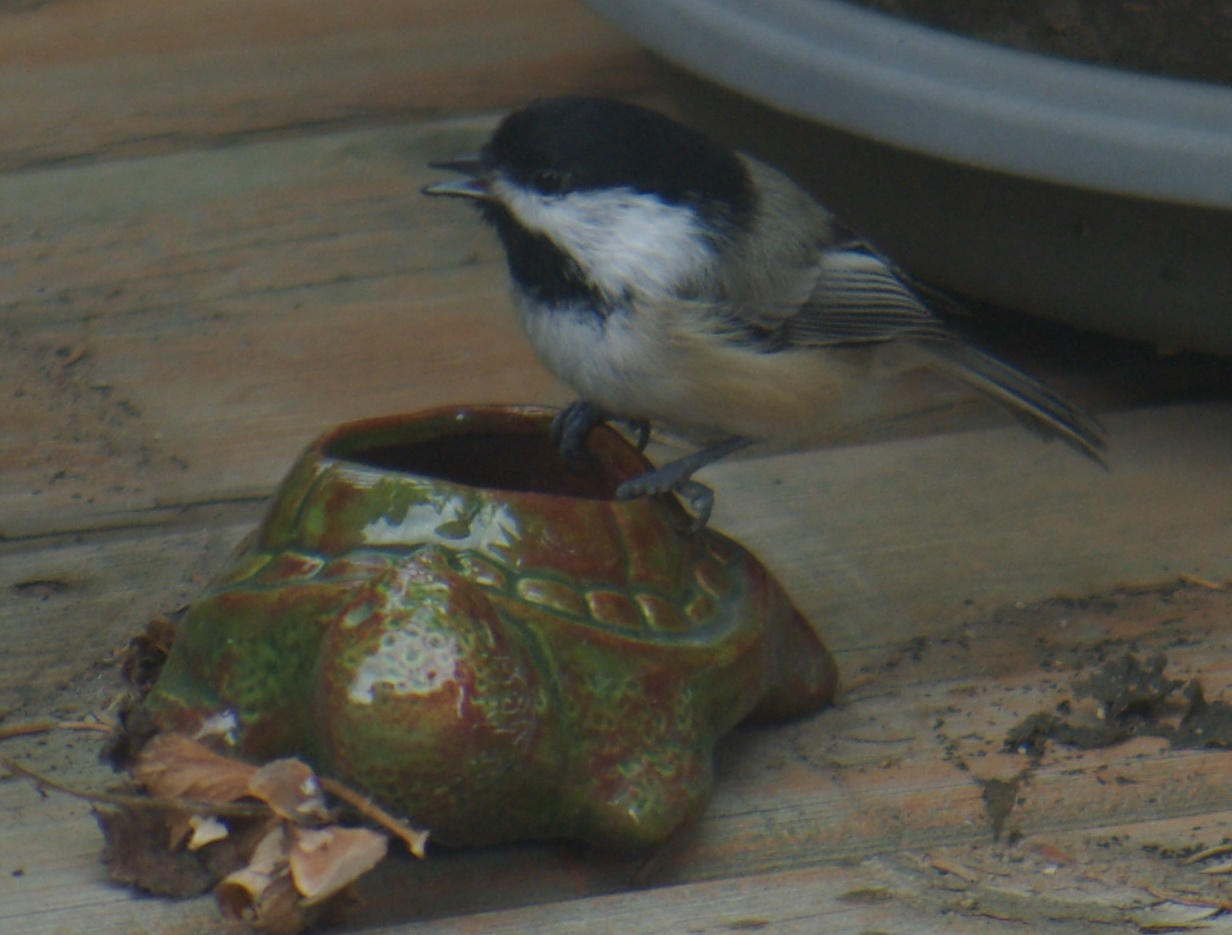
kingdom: Animalia
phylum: Chordata
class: Aves
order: Passeriformes
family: Paridae
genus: Poecile
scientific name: Poecile atricapillus
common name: Black-capped chickadee
